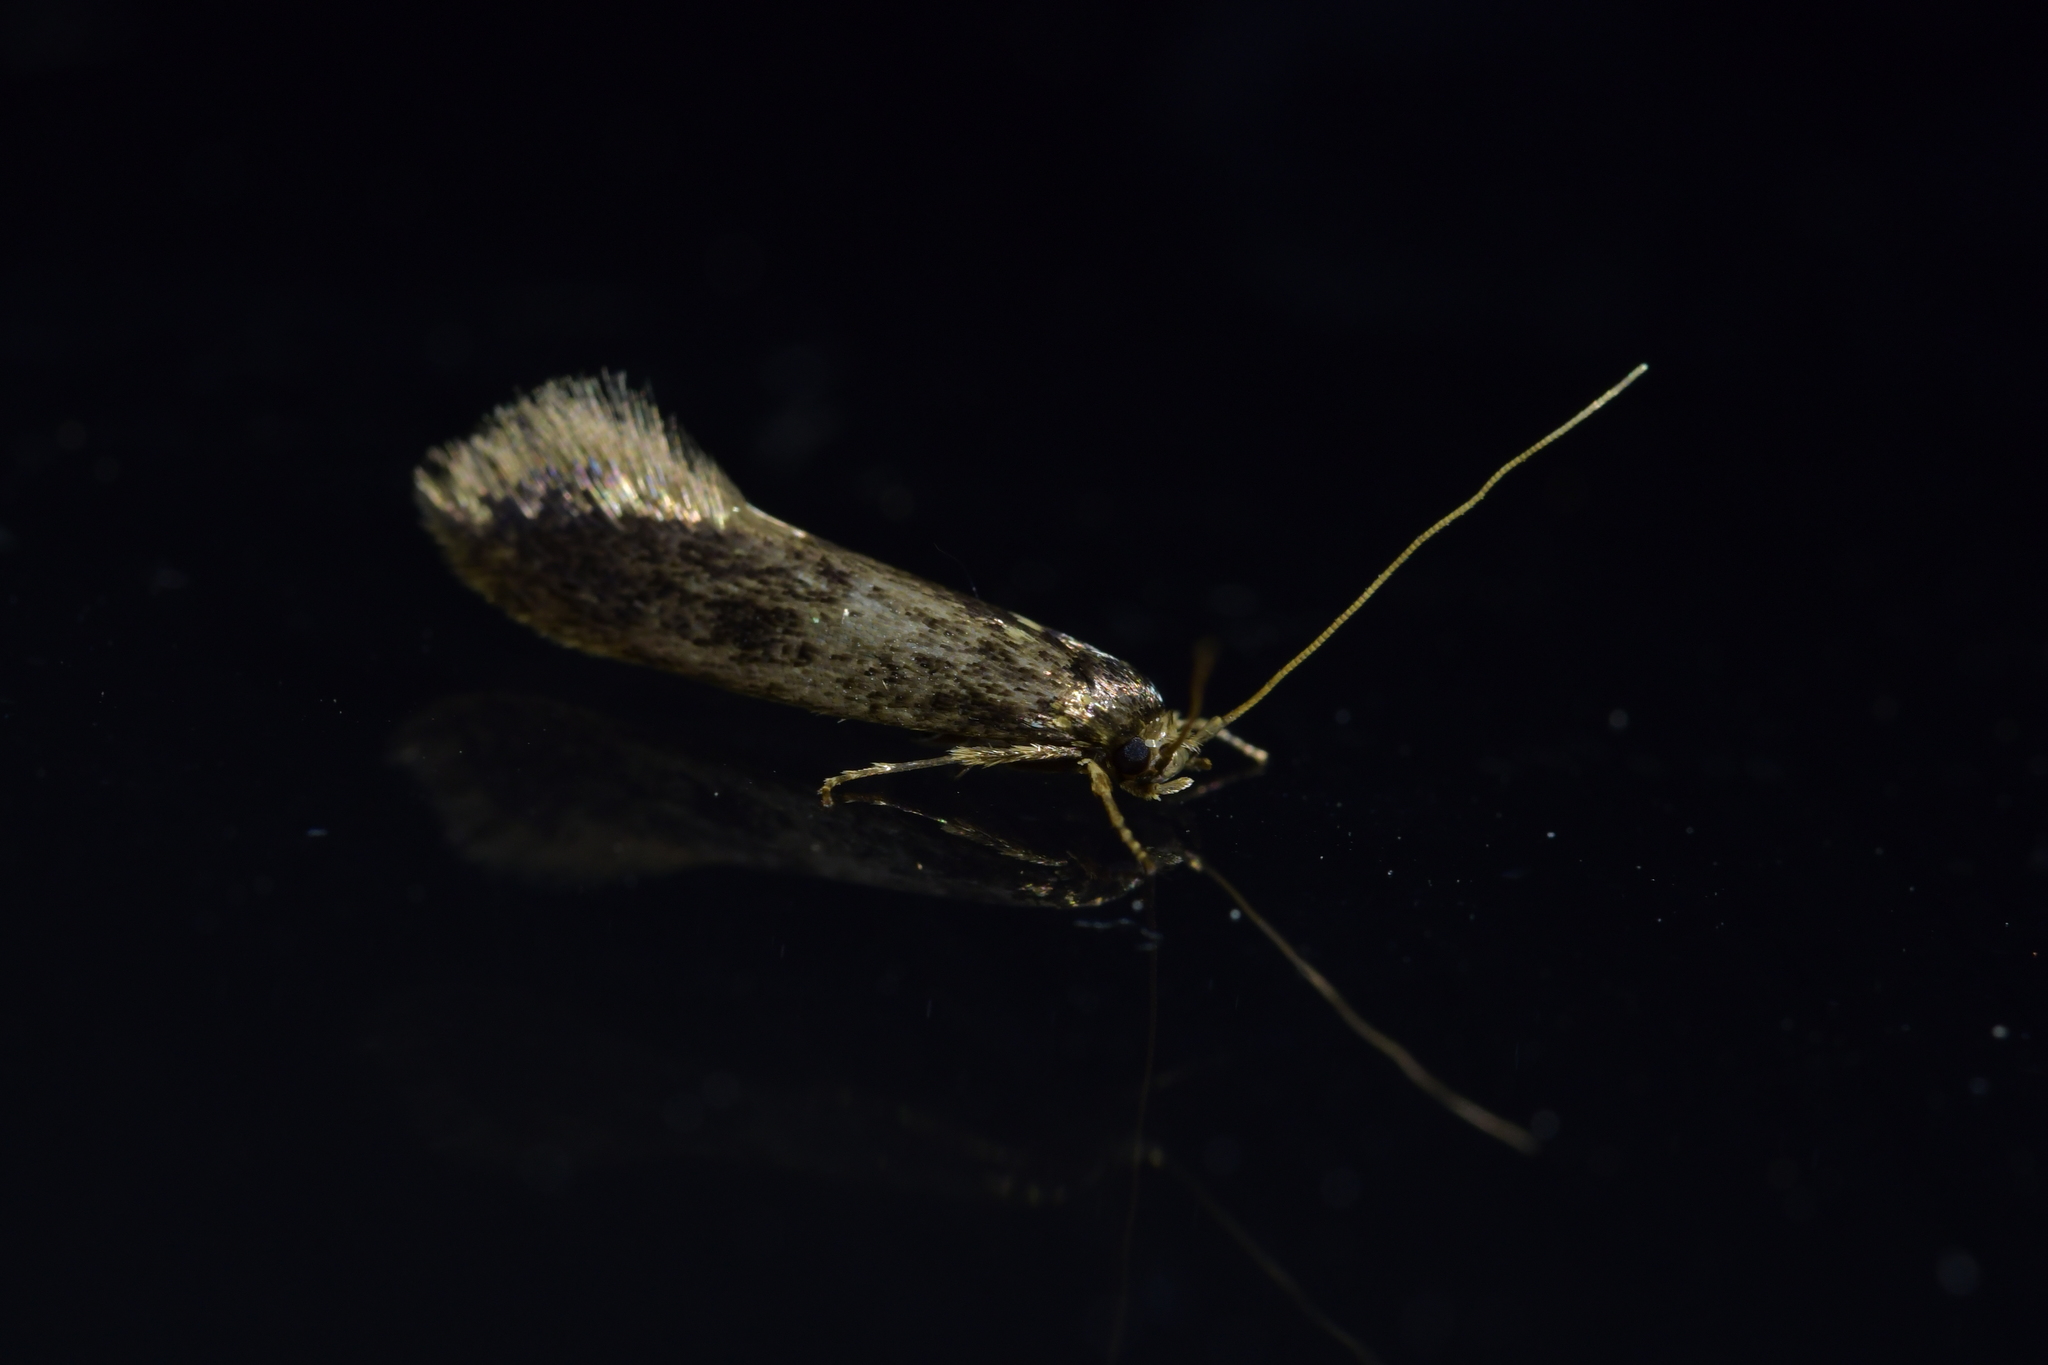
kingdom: Animalia
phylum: Arthropoda
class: Insecta
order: Lepidoptera
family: Tineidae
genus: Opogona
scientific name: Opogona omoscopa
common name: Moth
